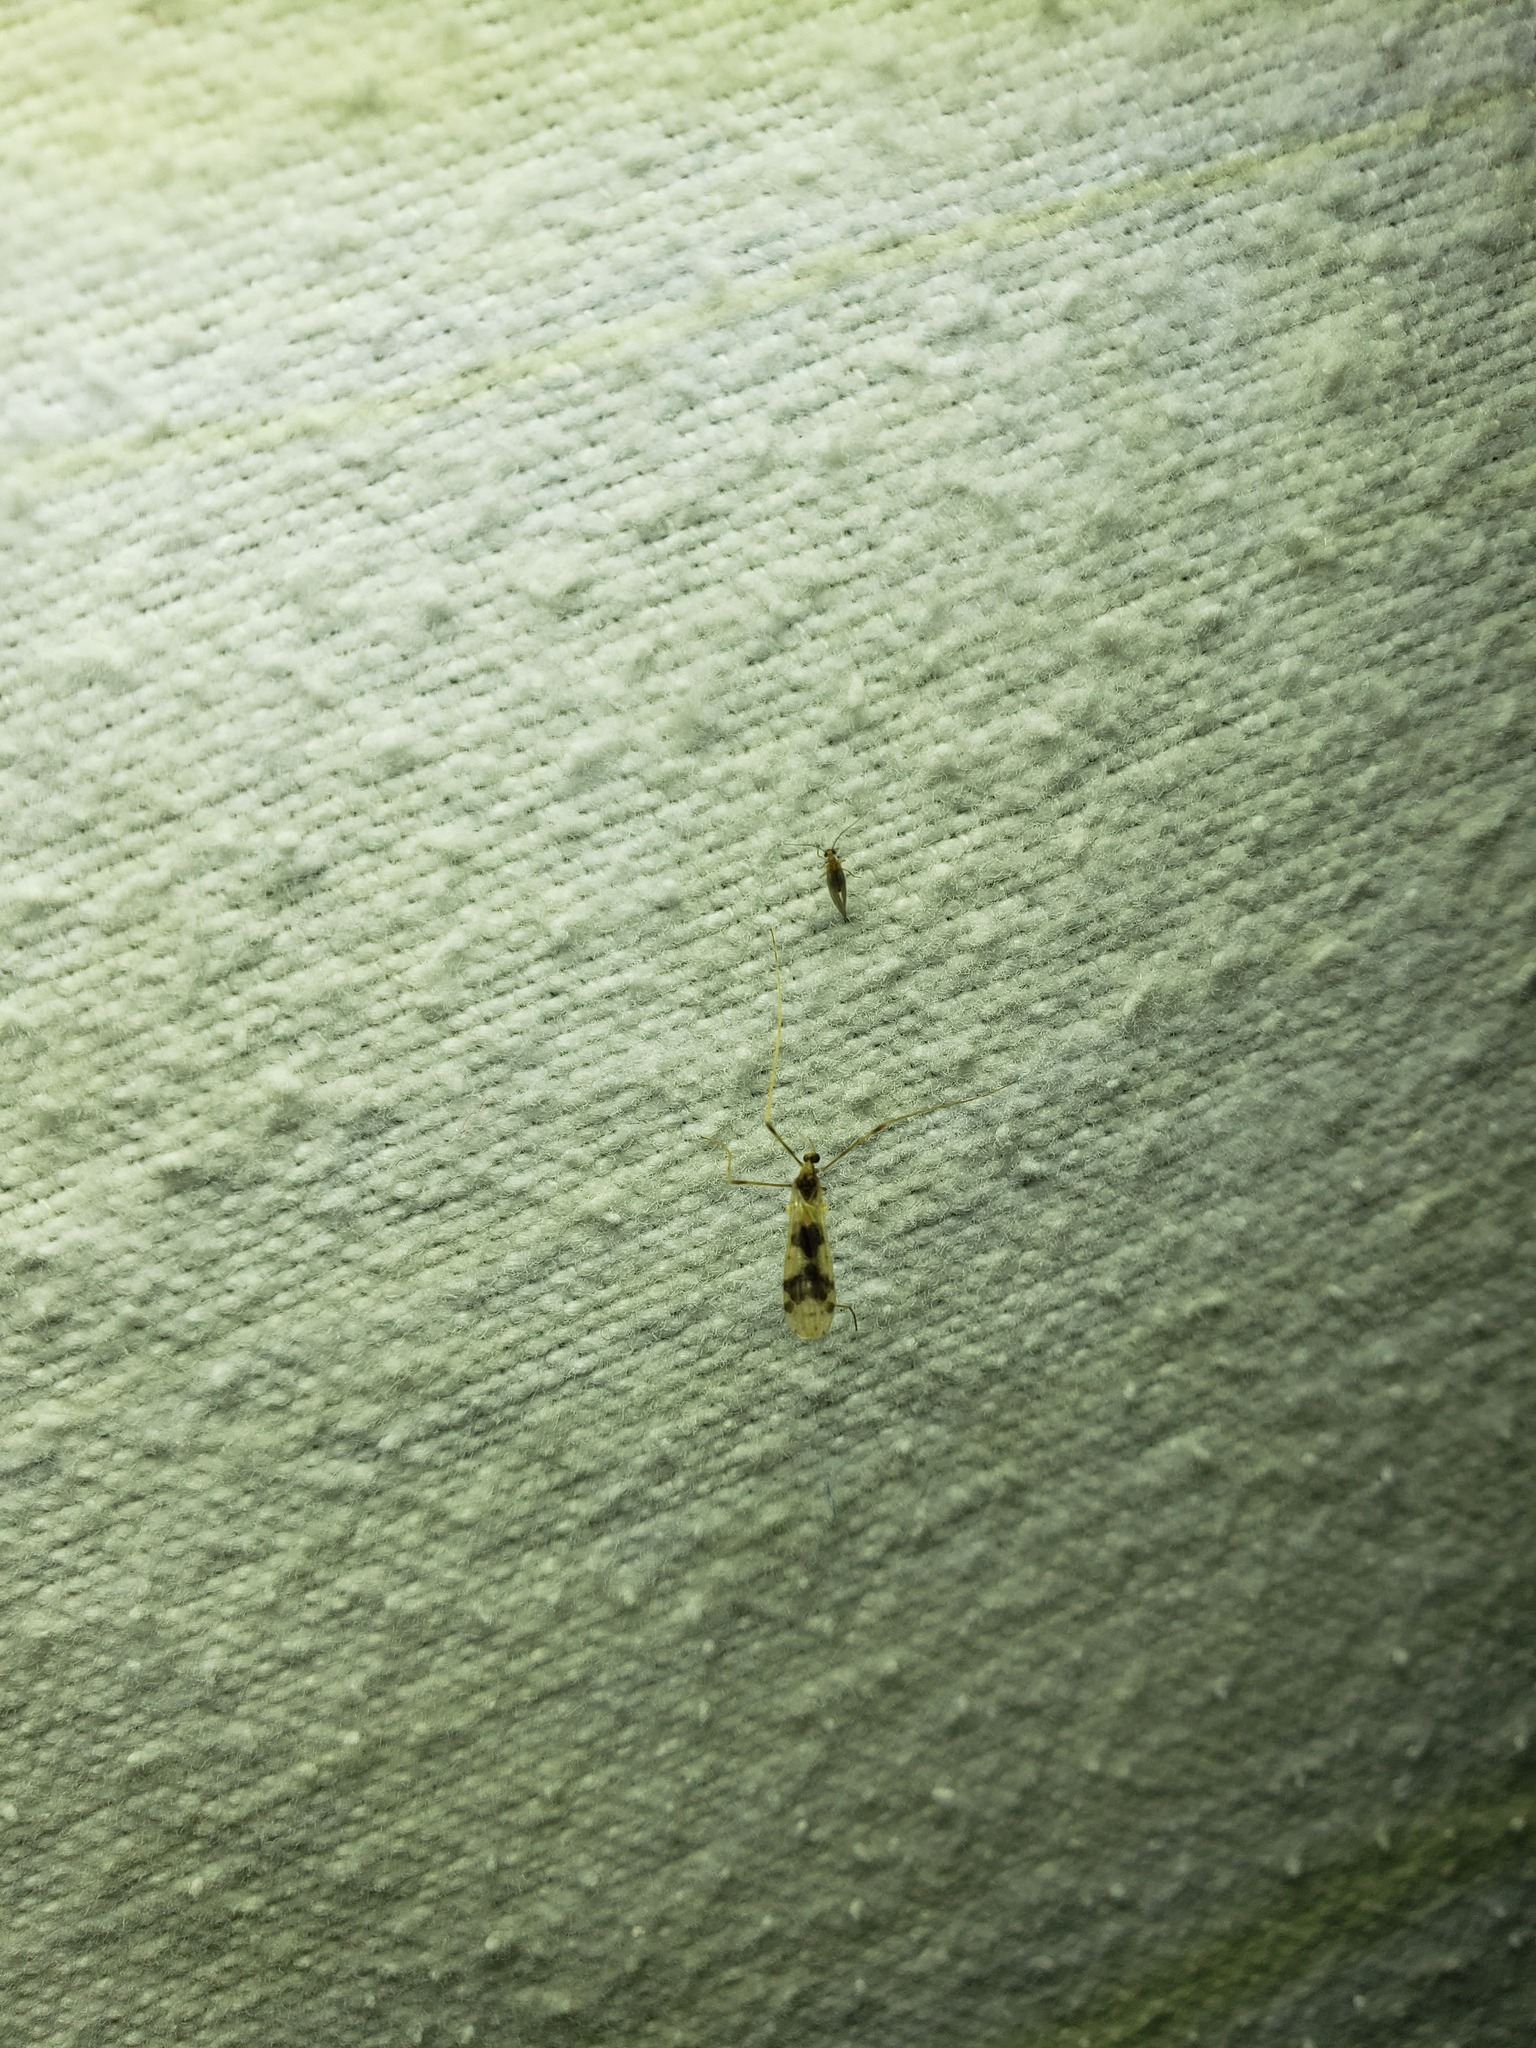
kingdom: Animalia
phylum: Arthropoda
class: Insecta
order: Diptera
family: Limoniidae
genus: Ilisia
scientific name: Ilisia venusta
